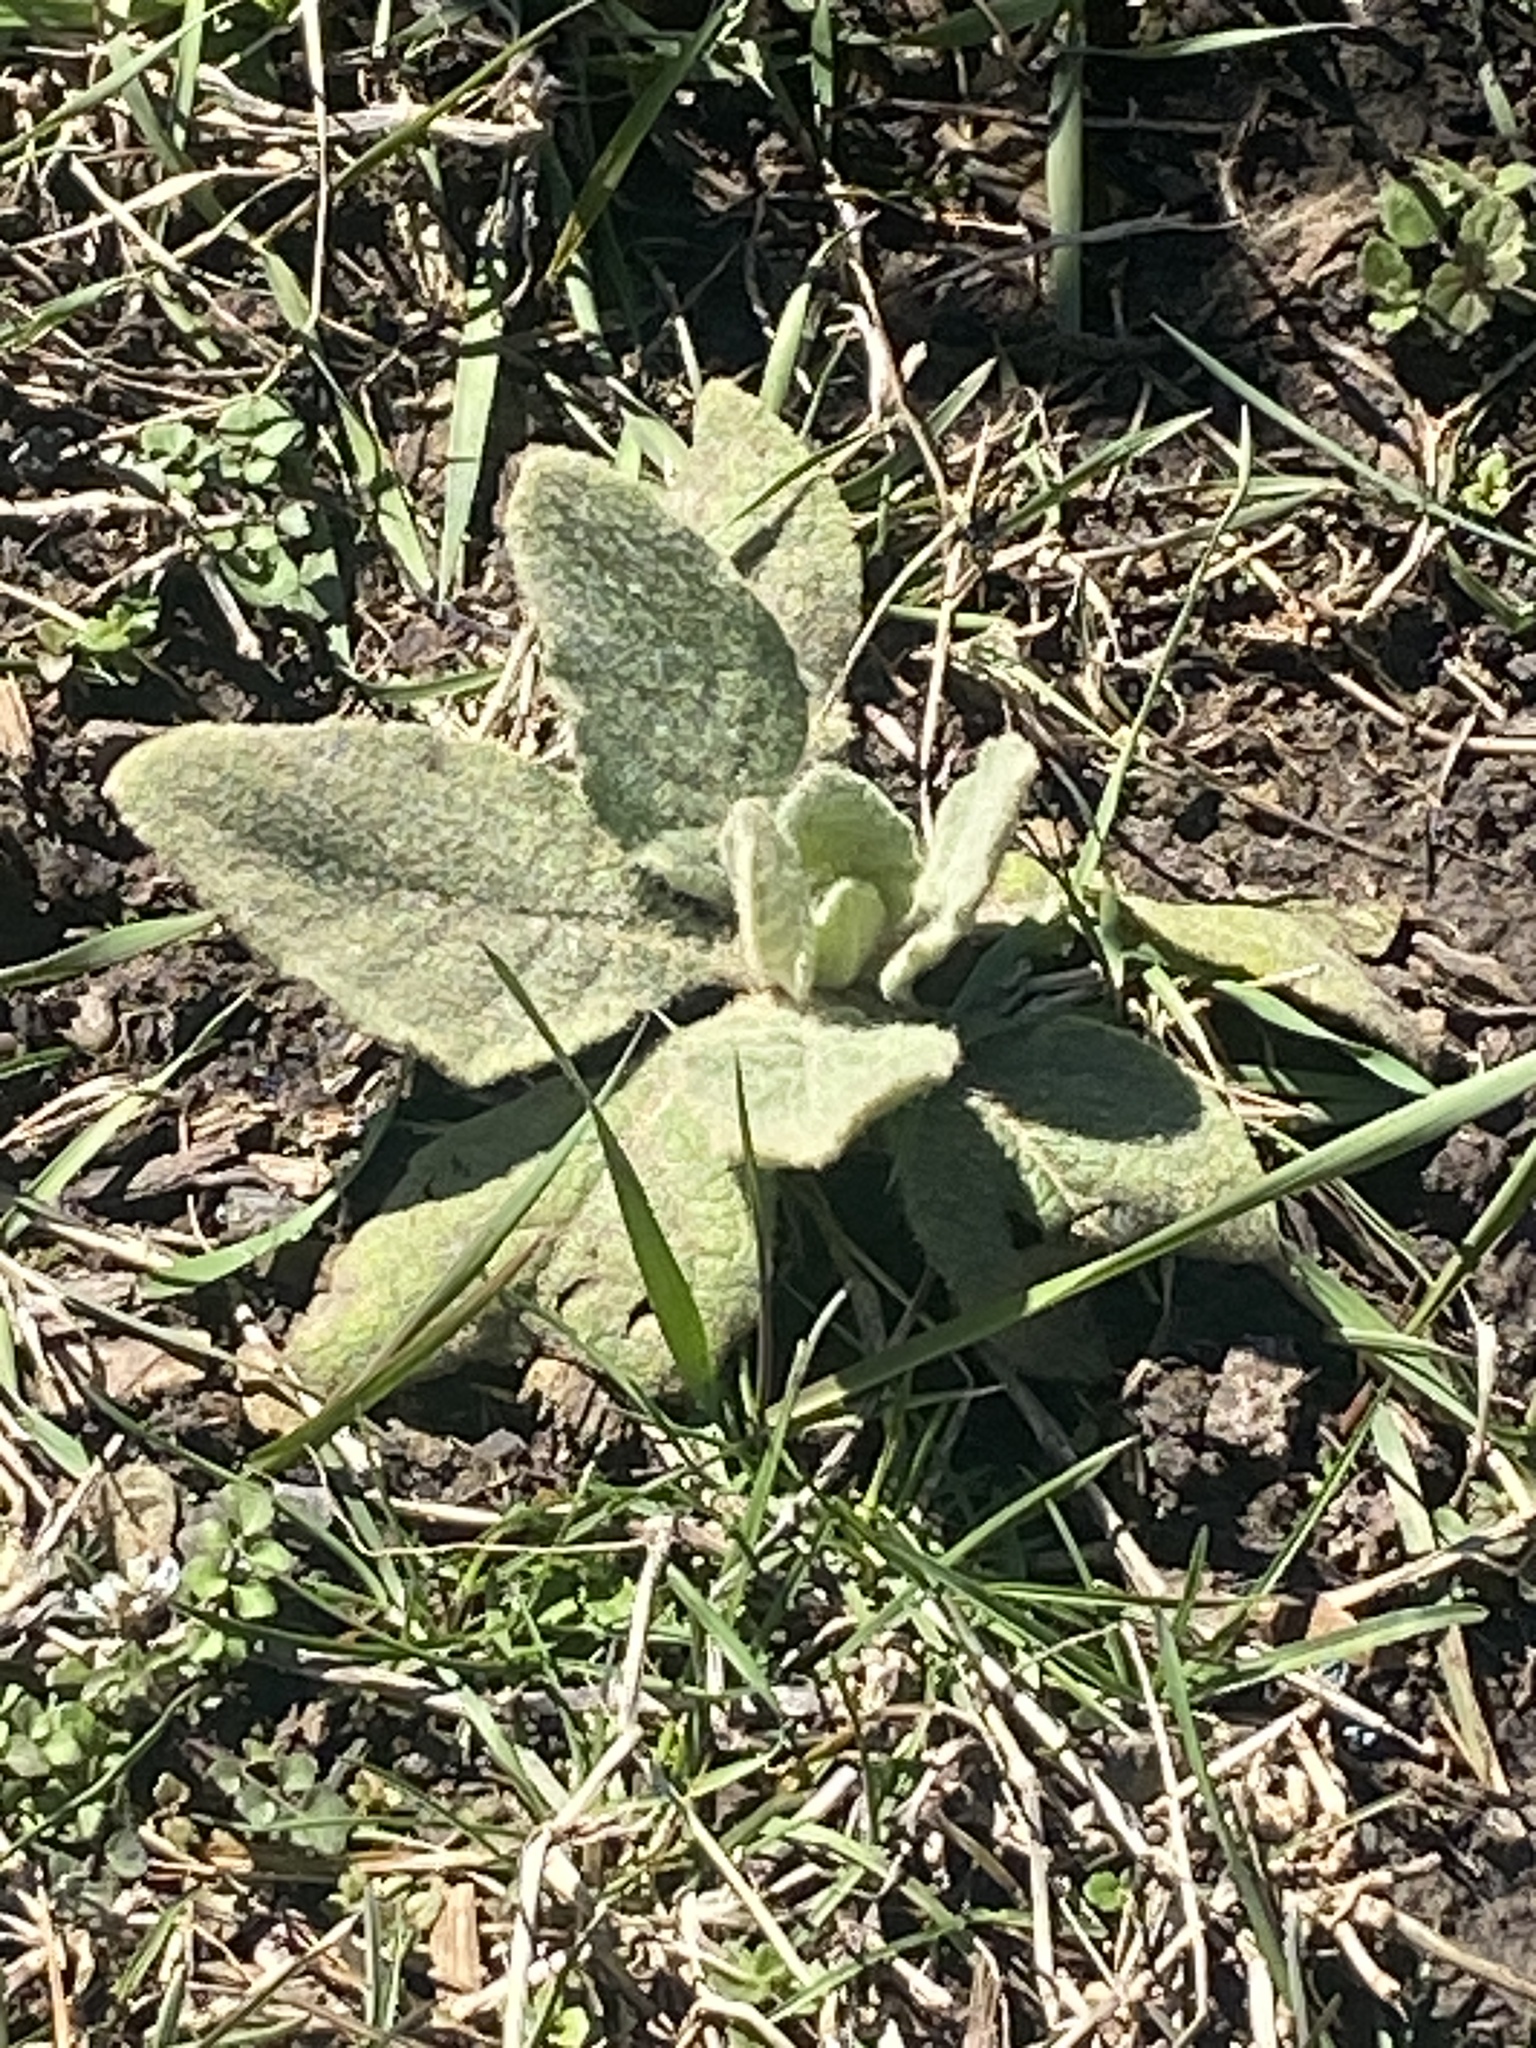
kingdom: Plantae
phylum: Tracheophyta
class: Magnoliopsida
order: Lamiales
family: Scrophulariaceae
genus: Verbascum
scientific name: Verbascum thapsus
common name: Common mullein
